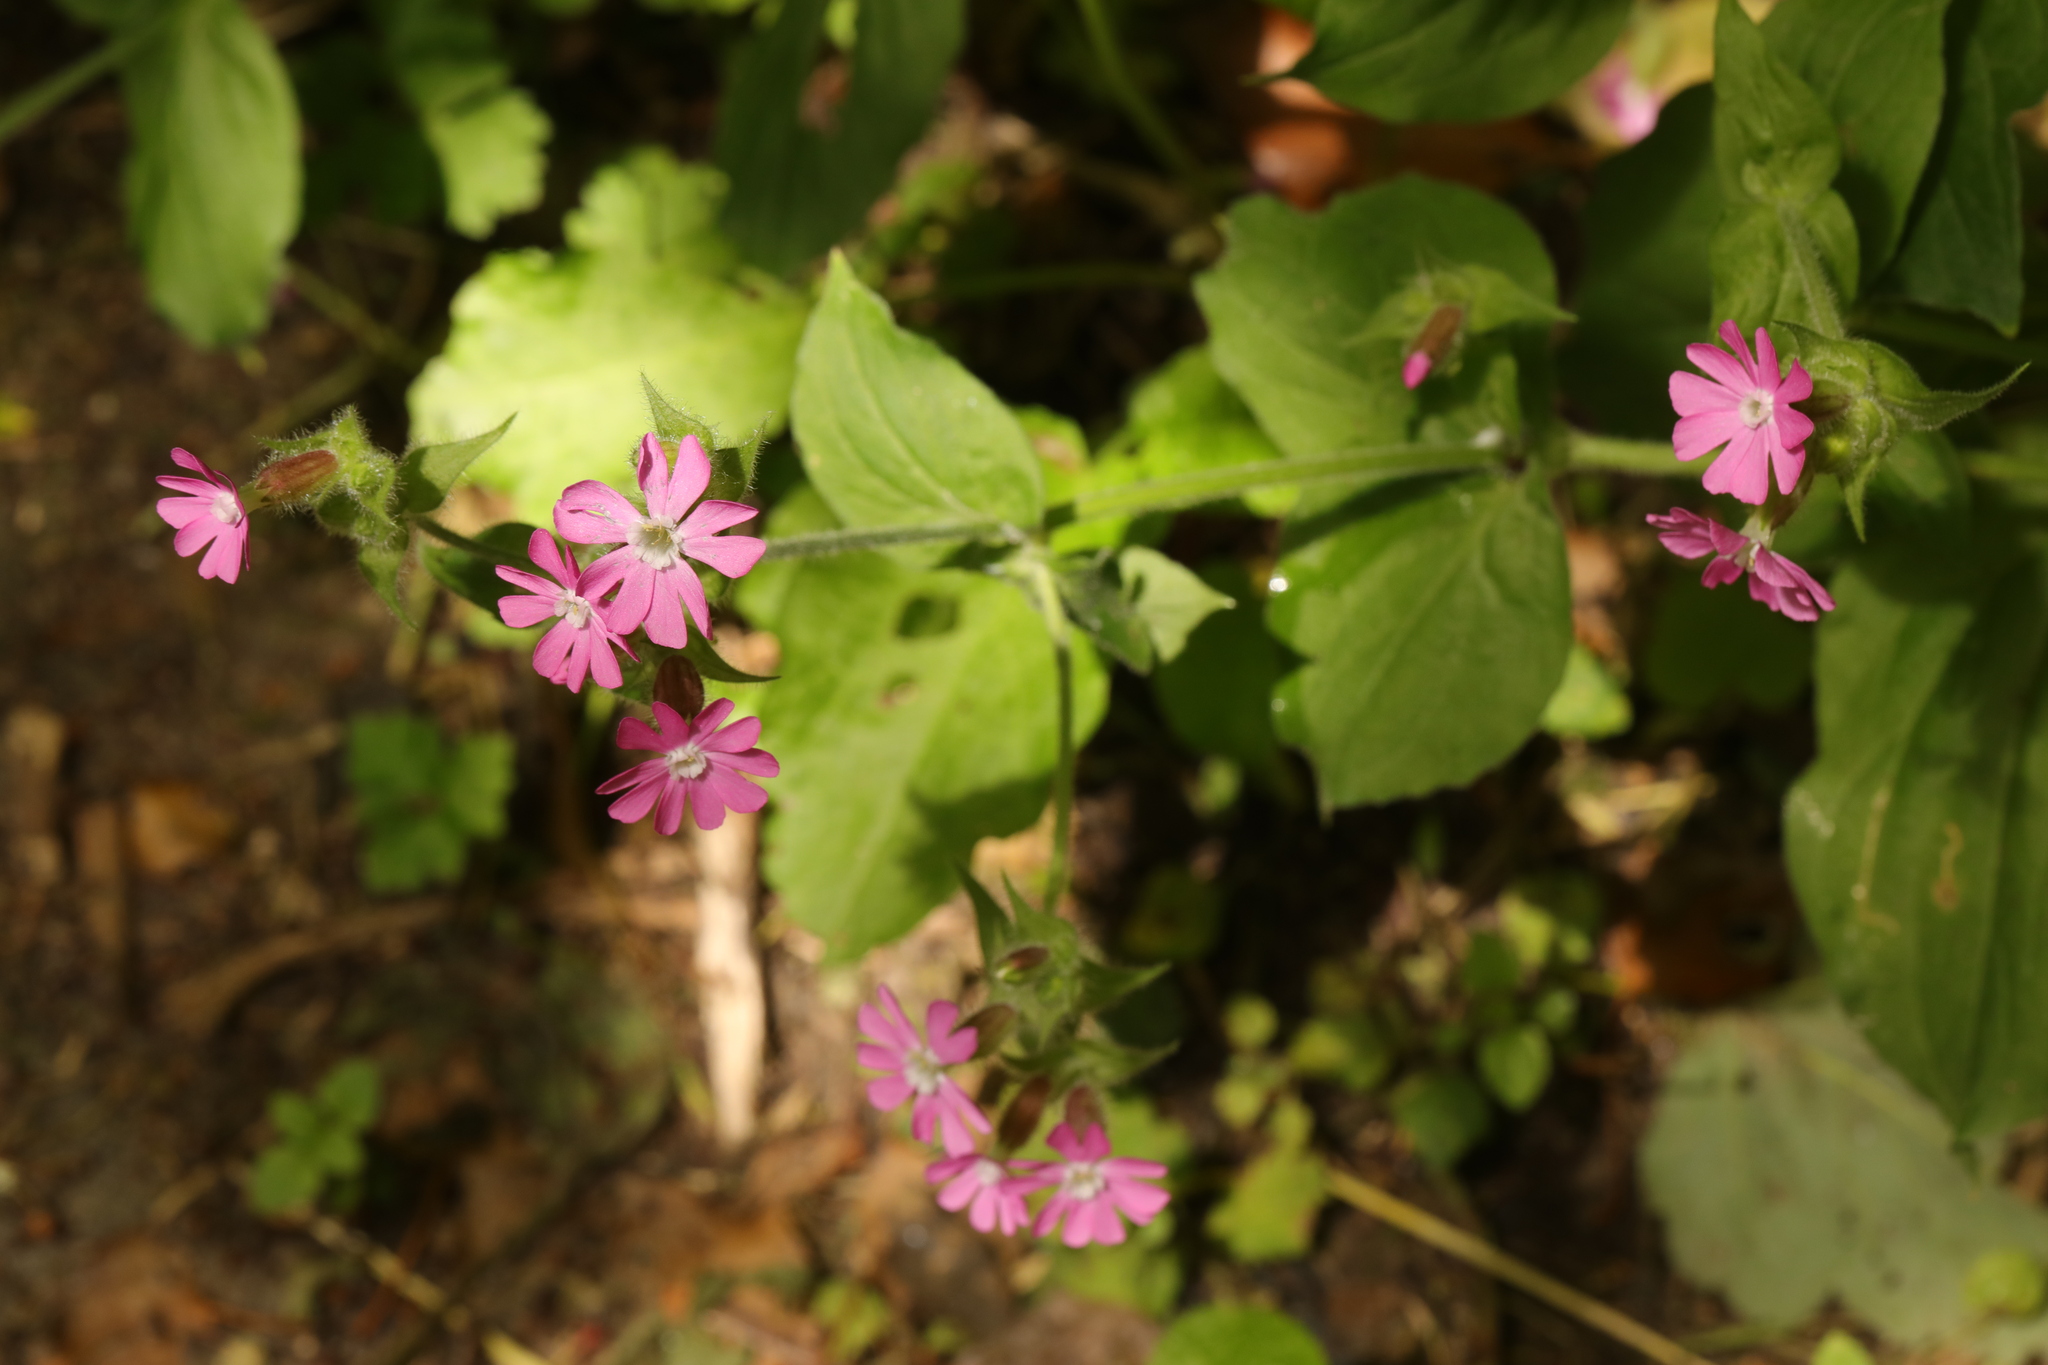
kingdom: Plantae
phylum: Tracheophyta
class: Magnoliopsida
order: Caryophyllales
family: Caryophyllaceae
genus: Silene
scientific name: Silene dioica
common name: Red campion
